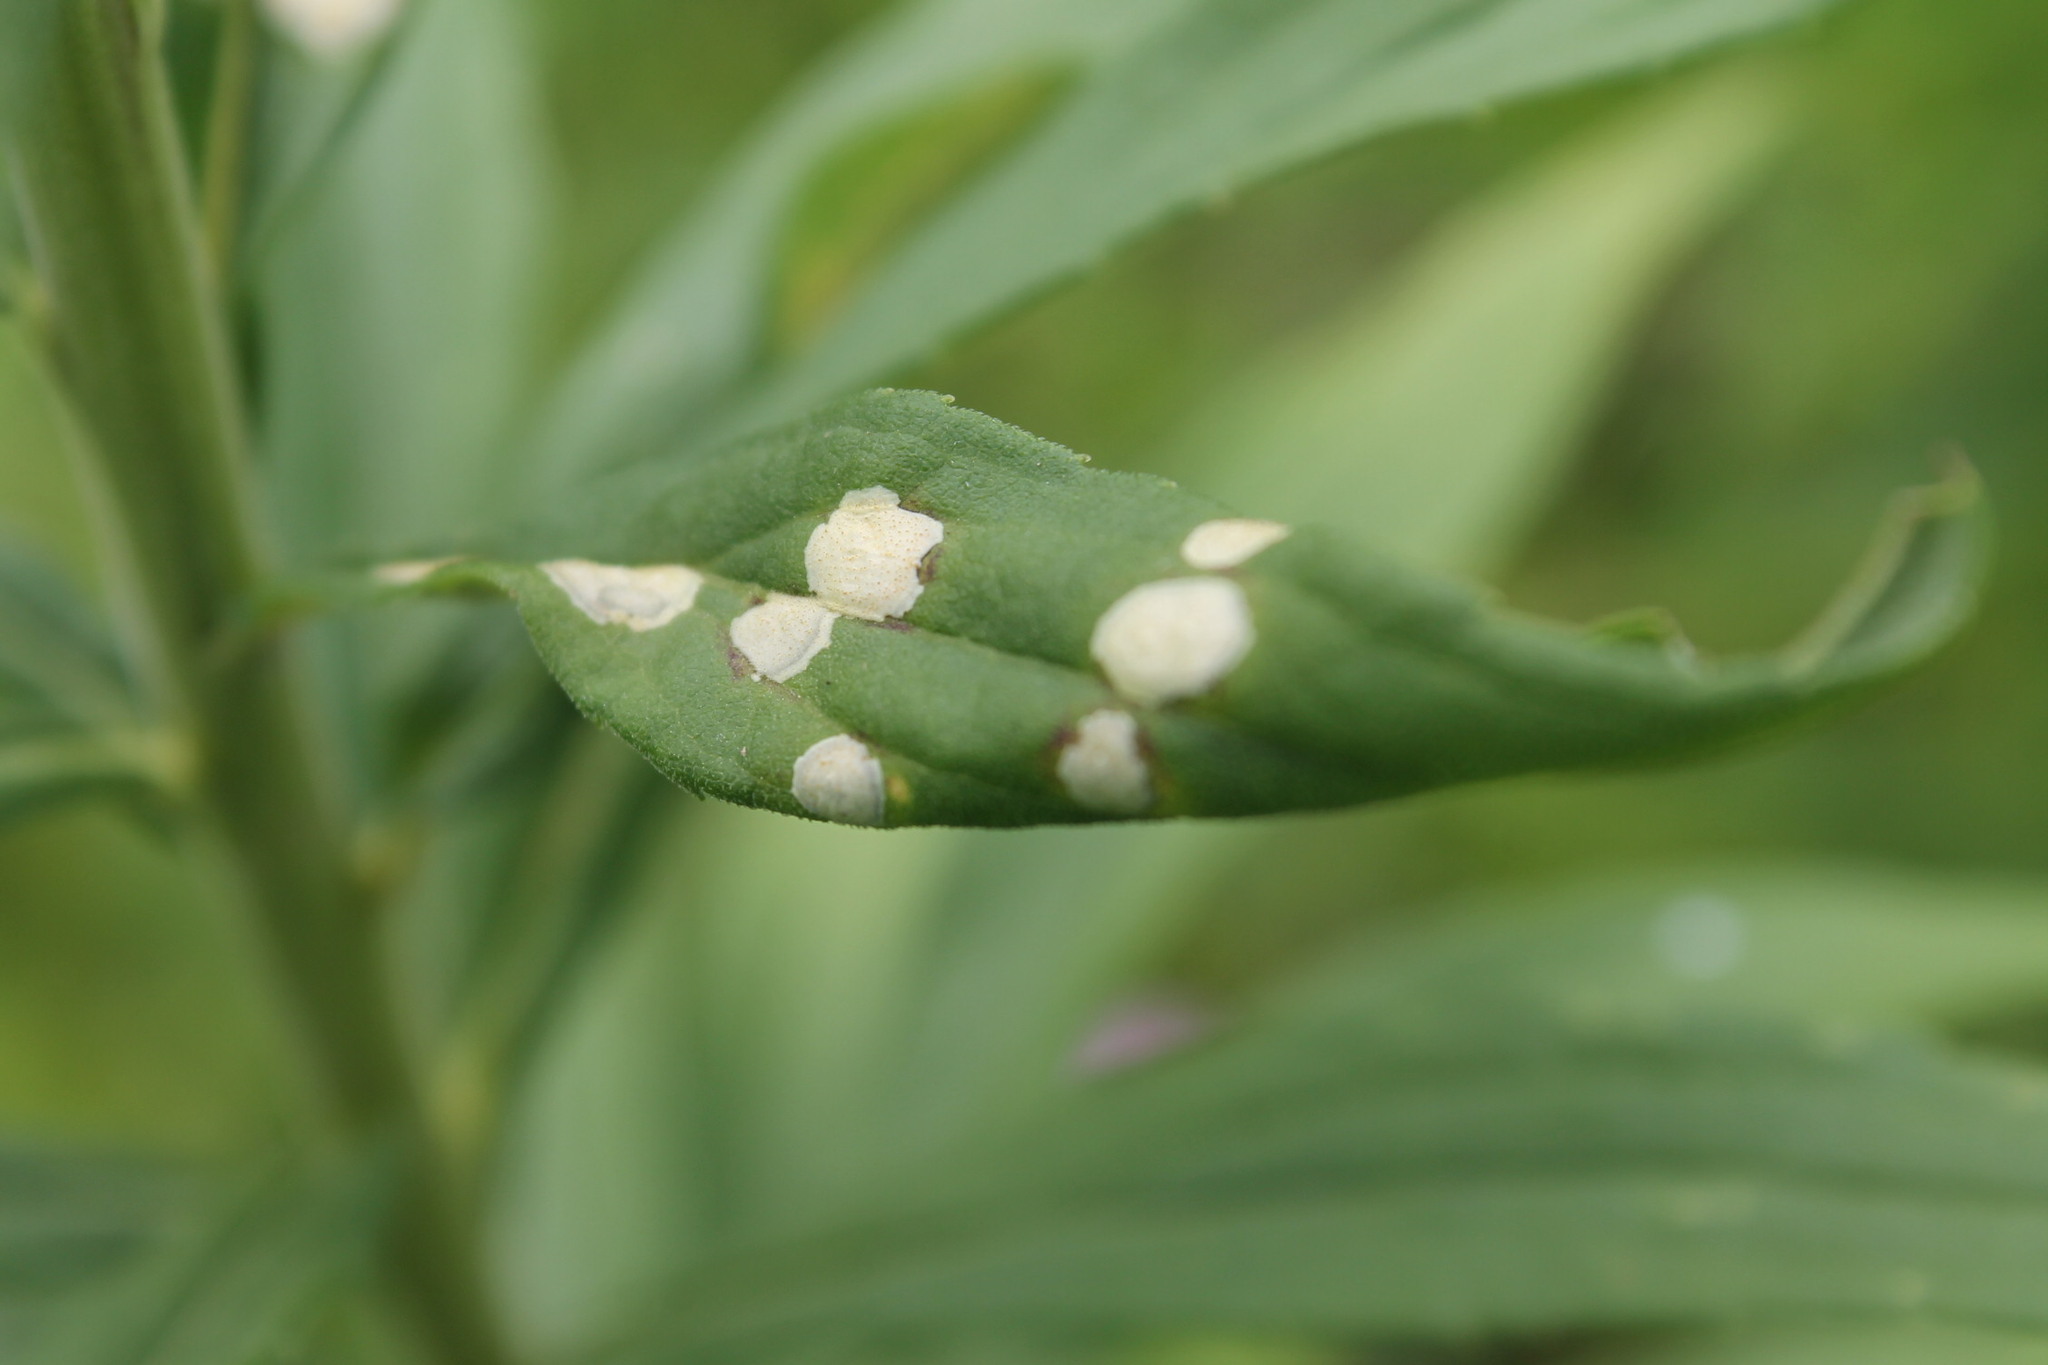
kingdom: Animalia
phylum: Arthropoda
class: Insecta
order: Diptera
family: Cecidomyiidae
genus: Asteromyia
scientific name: Asteromyia carbonifera
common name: Carbonifera goldenrod gall midge
